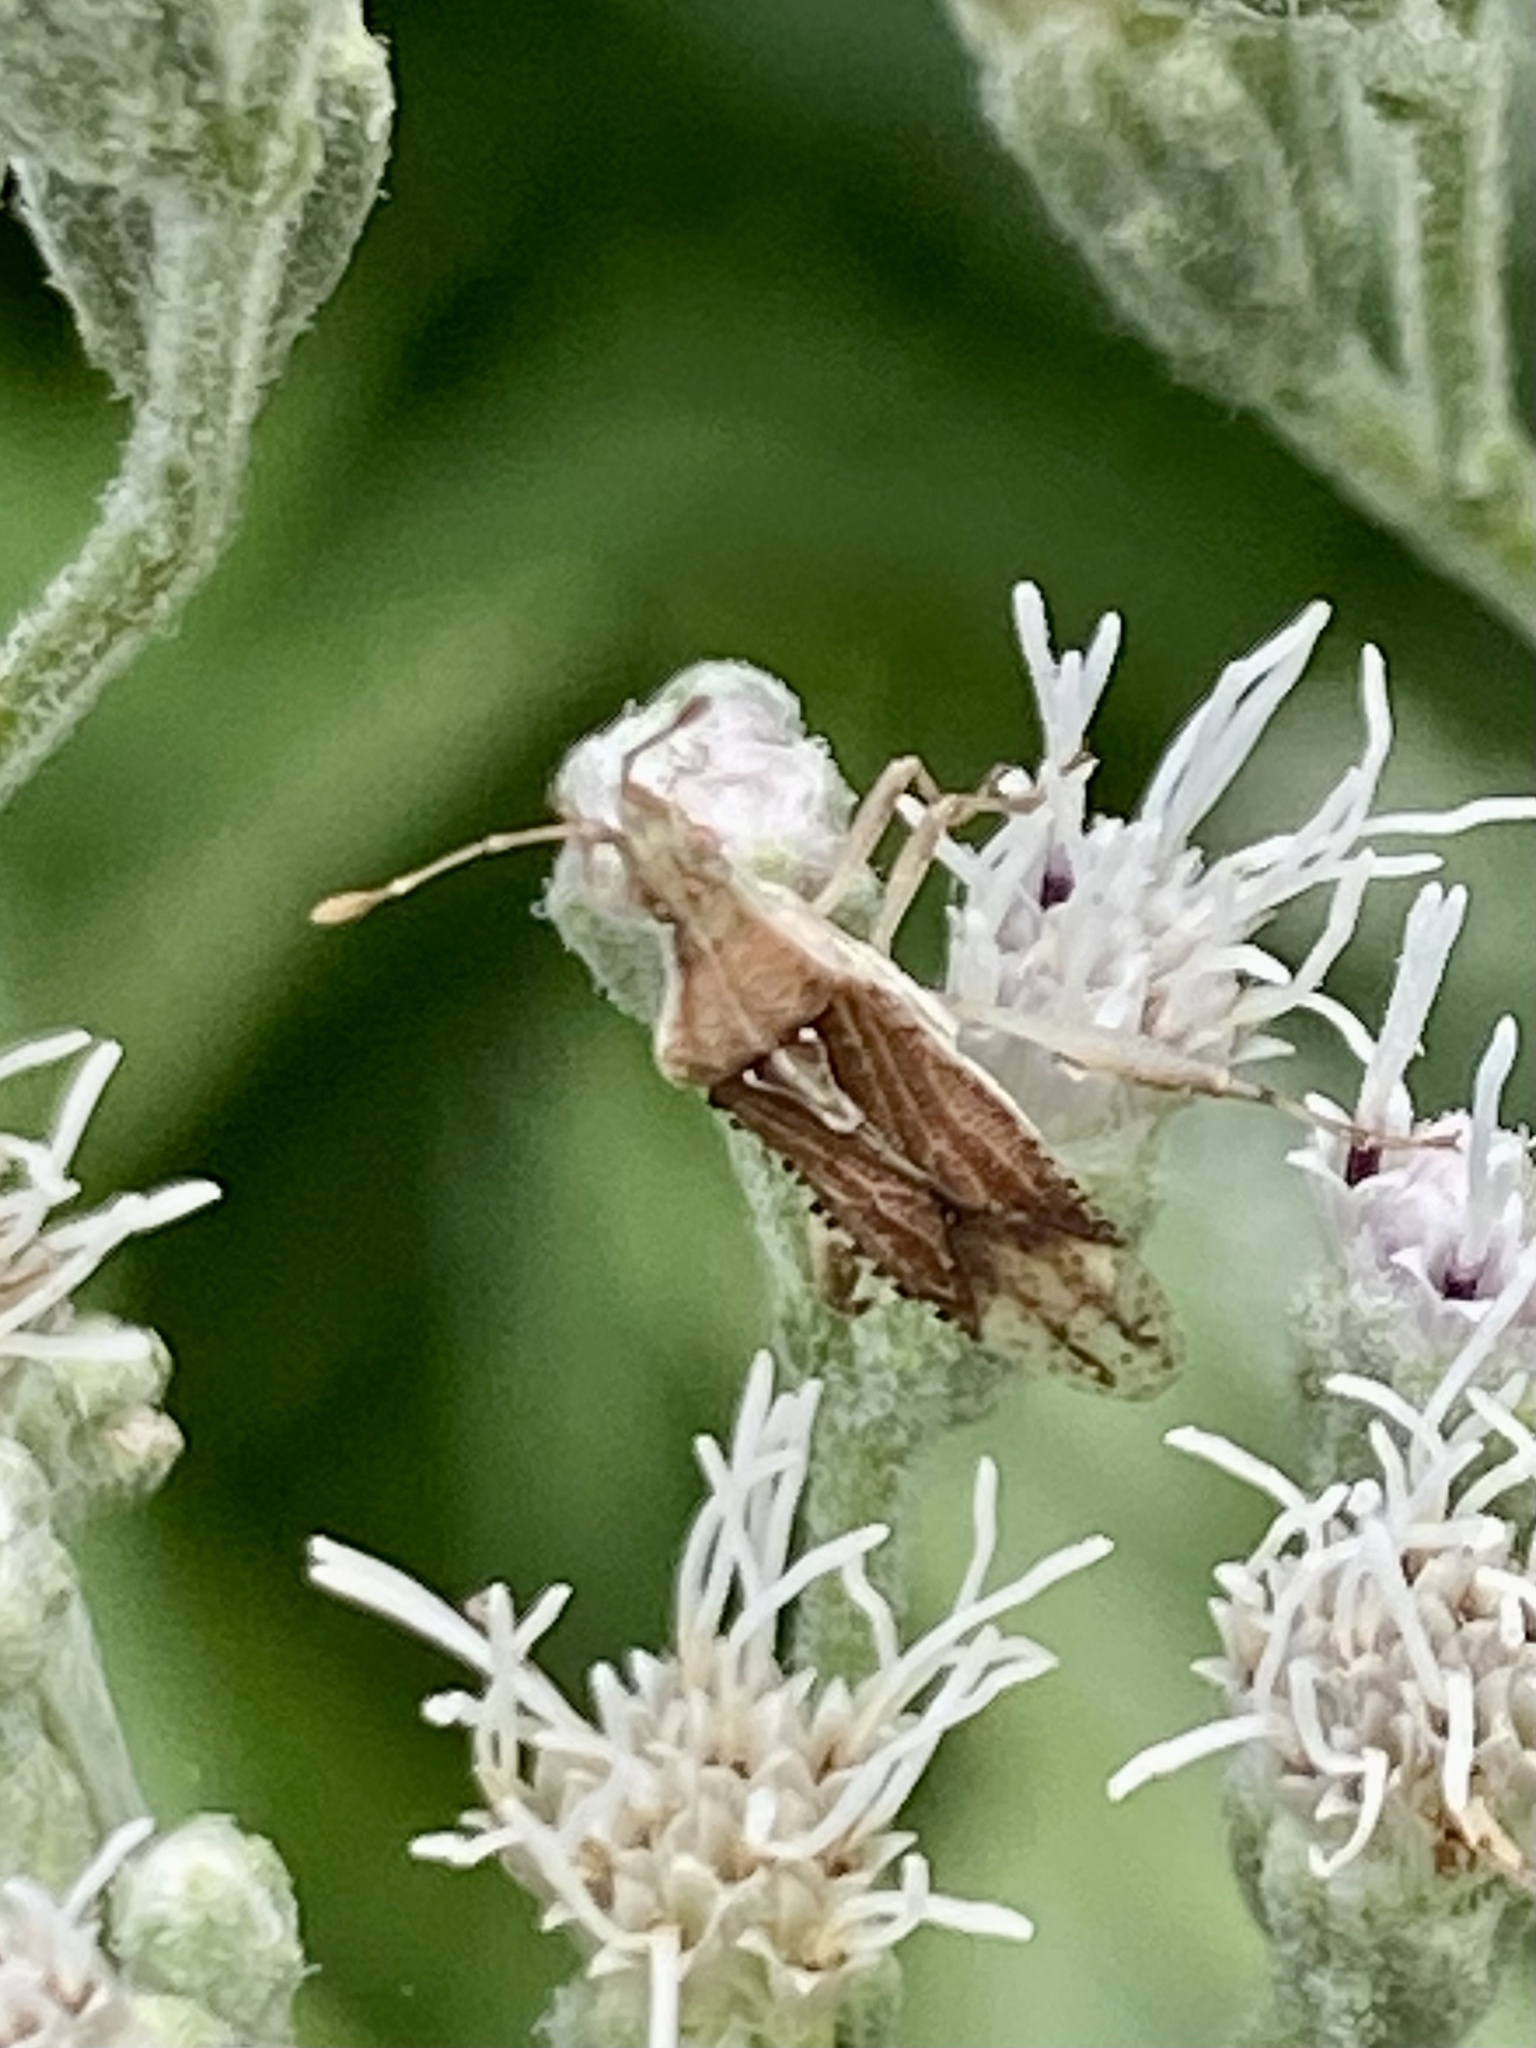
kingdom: Animalia
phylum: Arthropoda
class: Insecta
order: Hemiptera
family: Rhopalidae
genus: Harmostes
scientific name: Harmostes fraterculus
